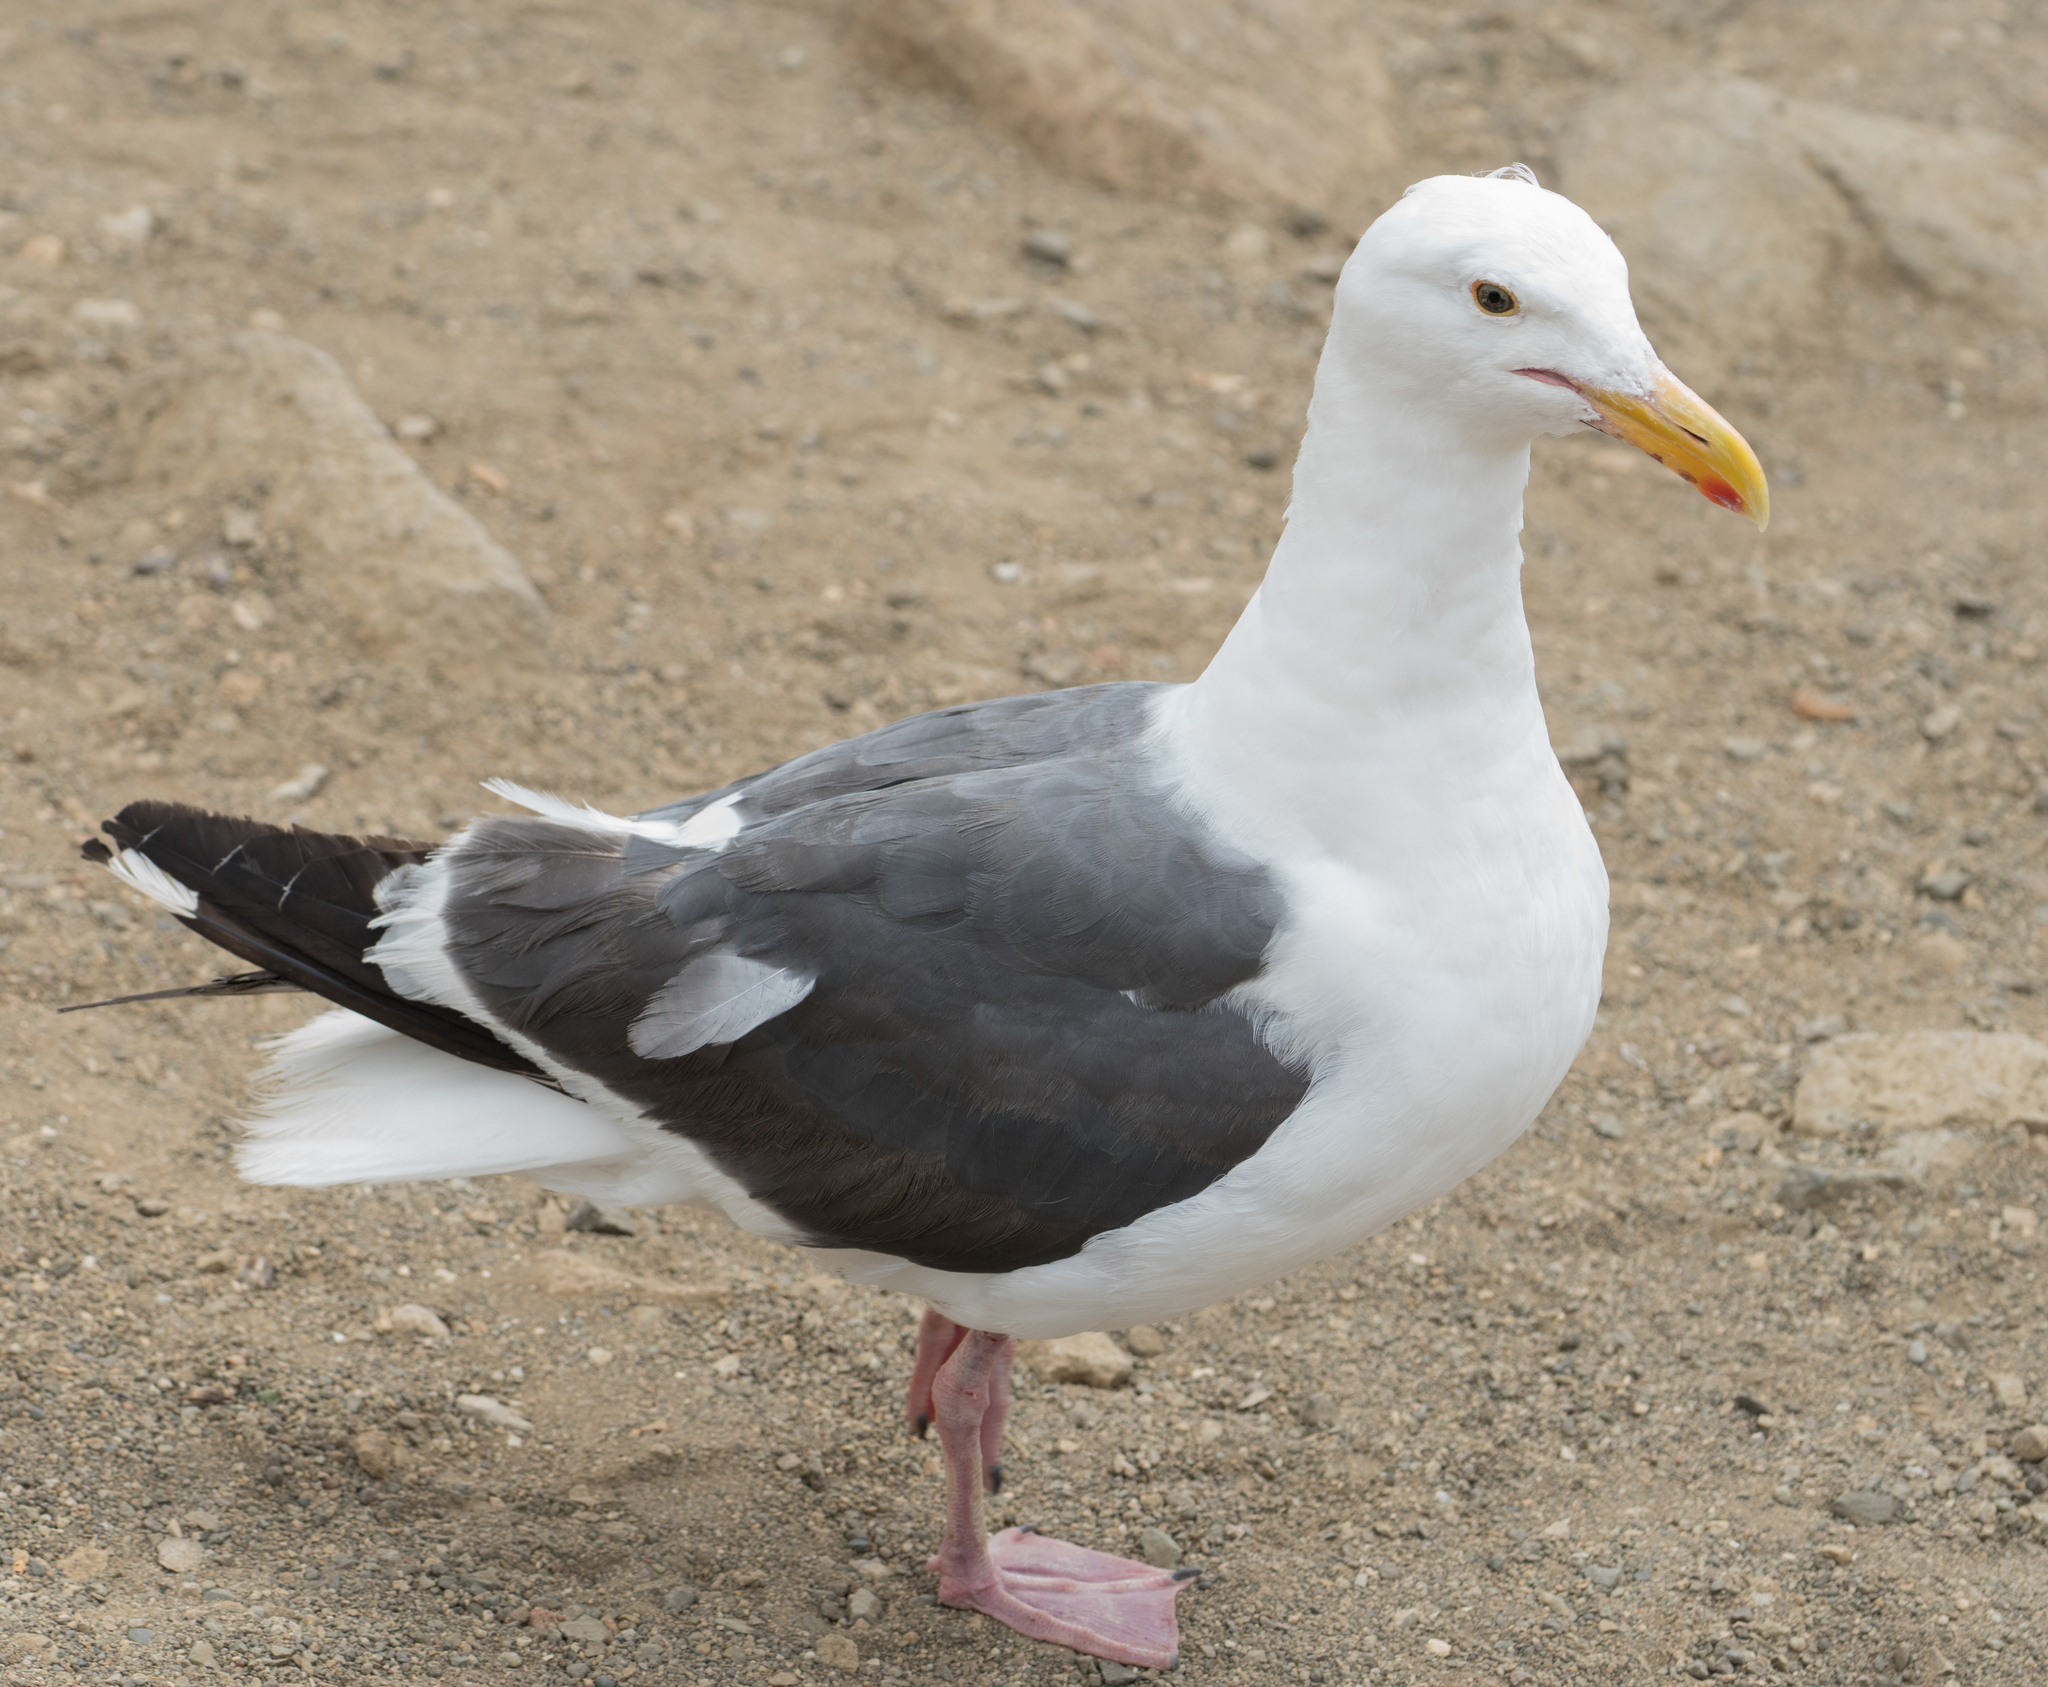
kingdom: Animalia
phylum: Chordata
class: Aves
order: Charadriiformes
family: Laridae
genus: Larus
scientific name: Larus occidentalis
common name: Western gull
